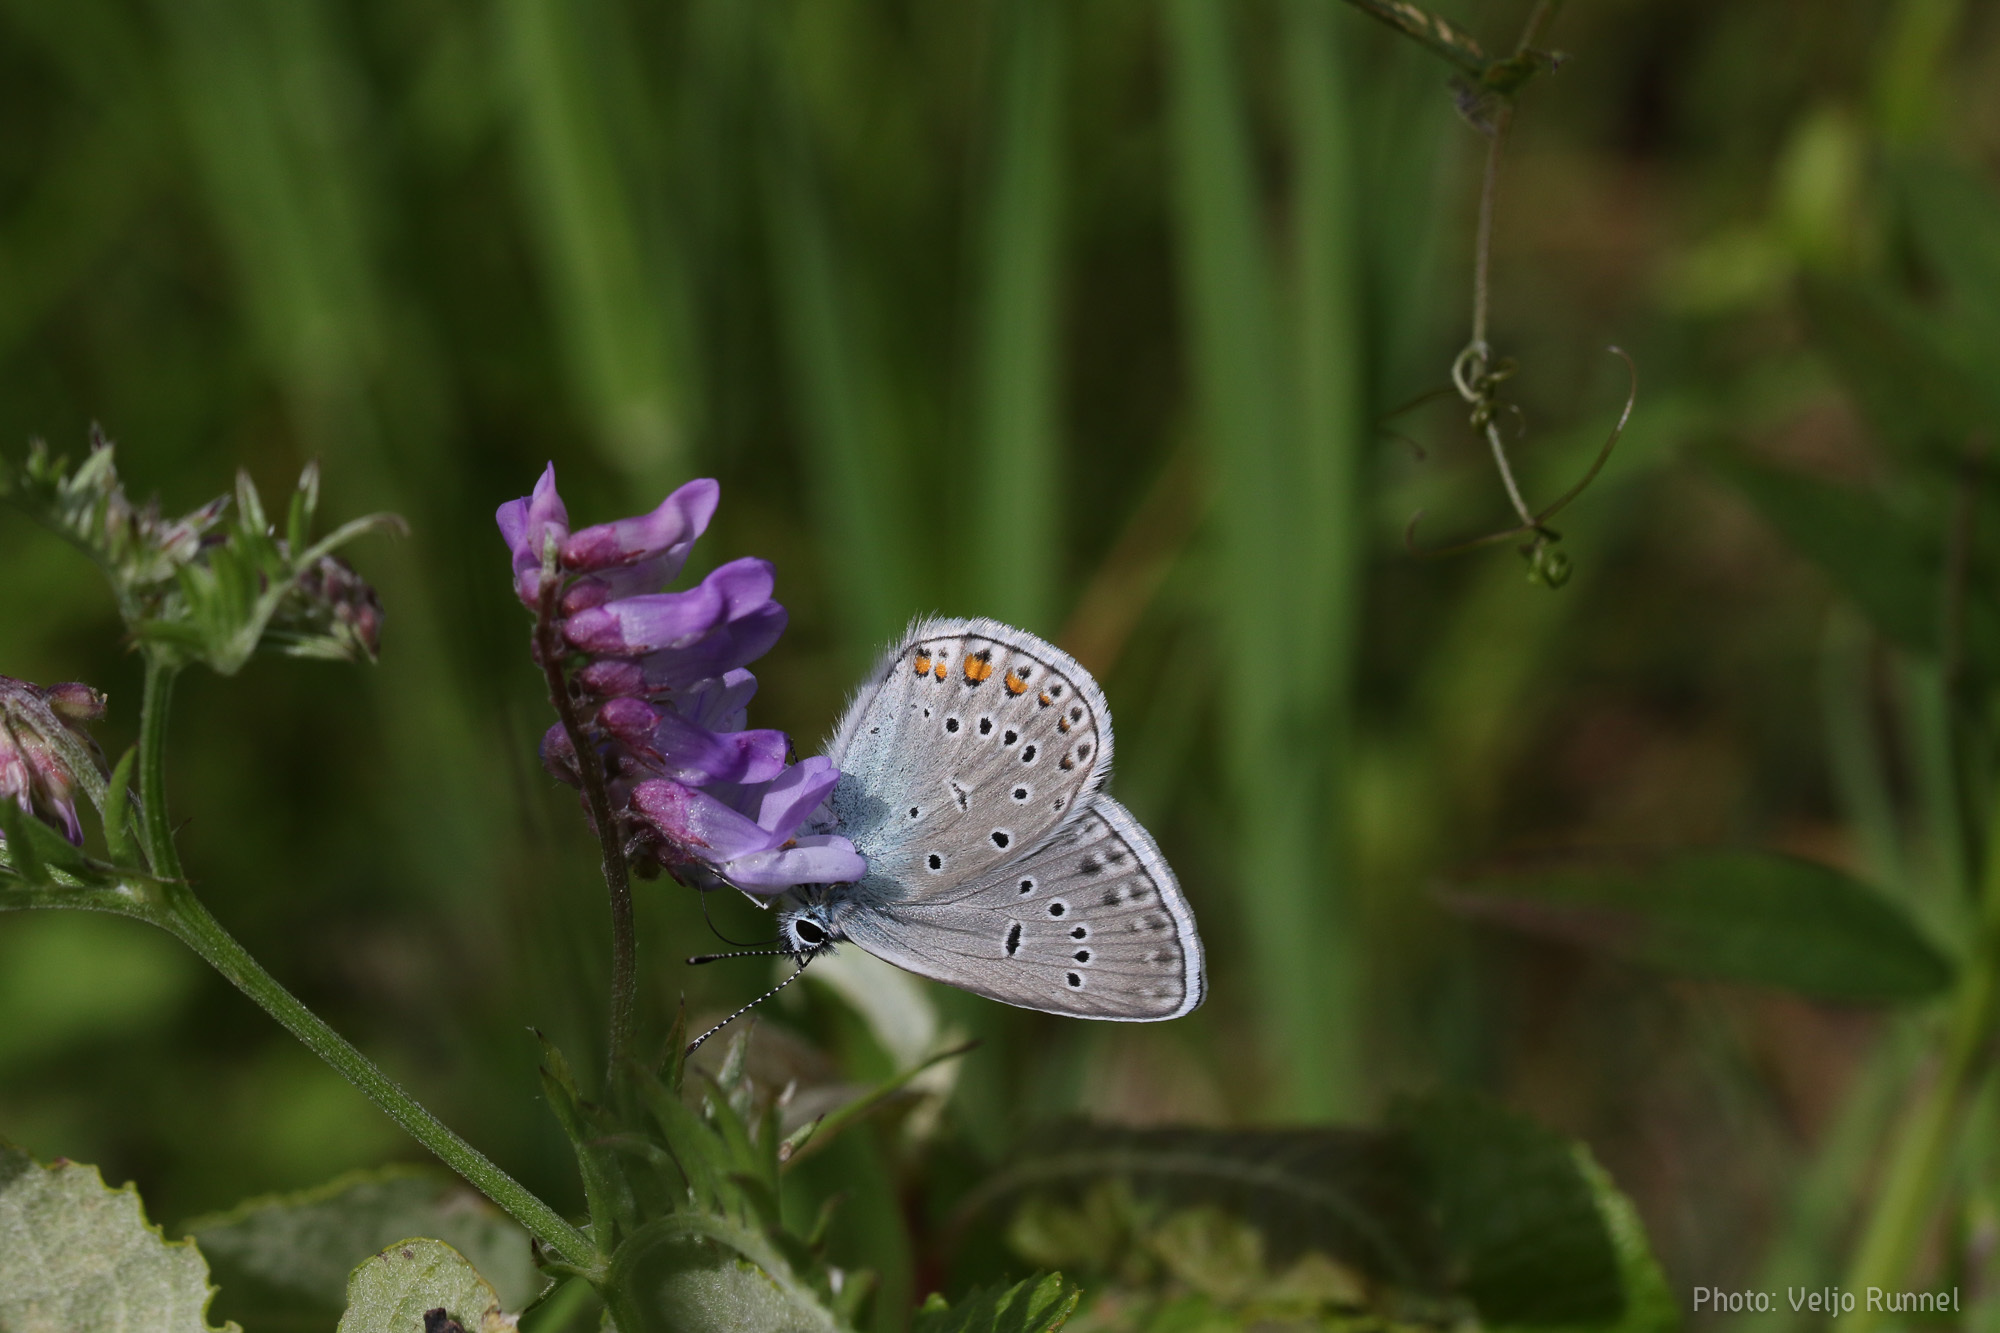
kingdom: Animalia
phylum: Arthropoda
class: Insecta
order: Lepidoptera
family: Lycaenidae
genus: Plebejus
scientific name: Plebejus amanda
